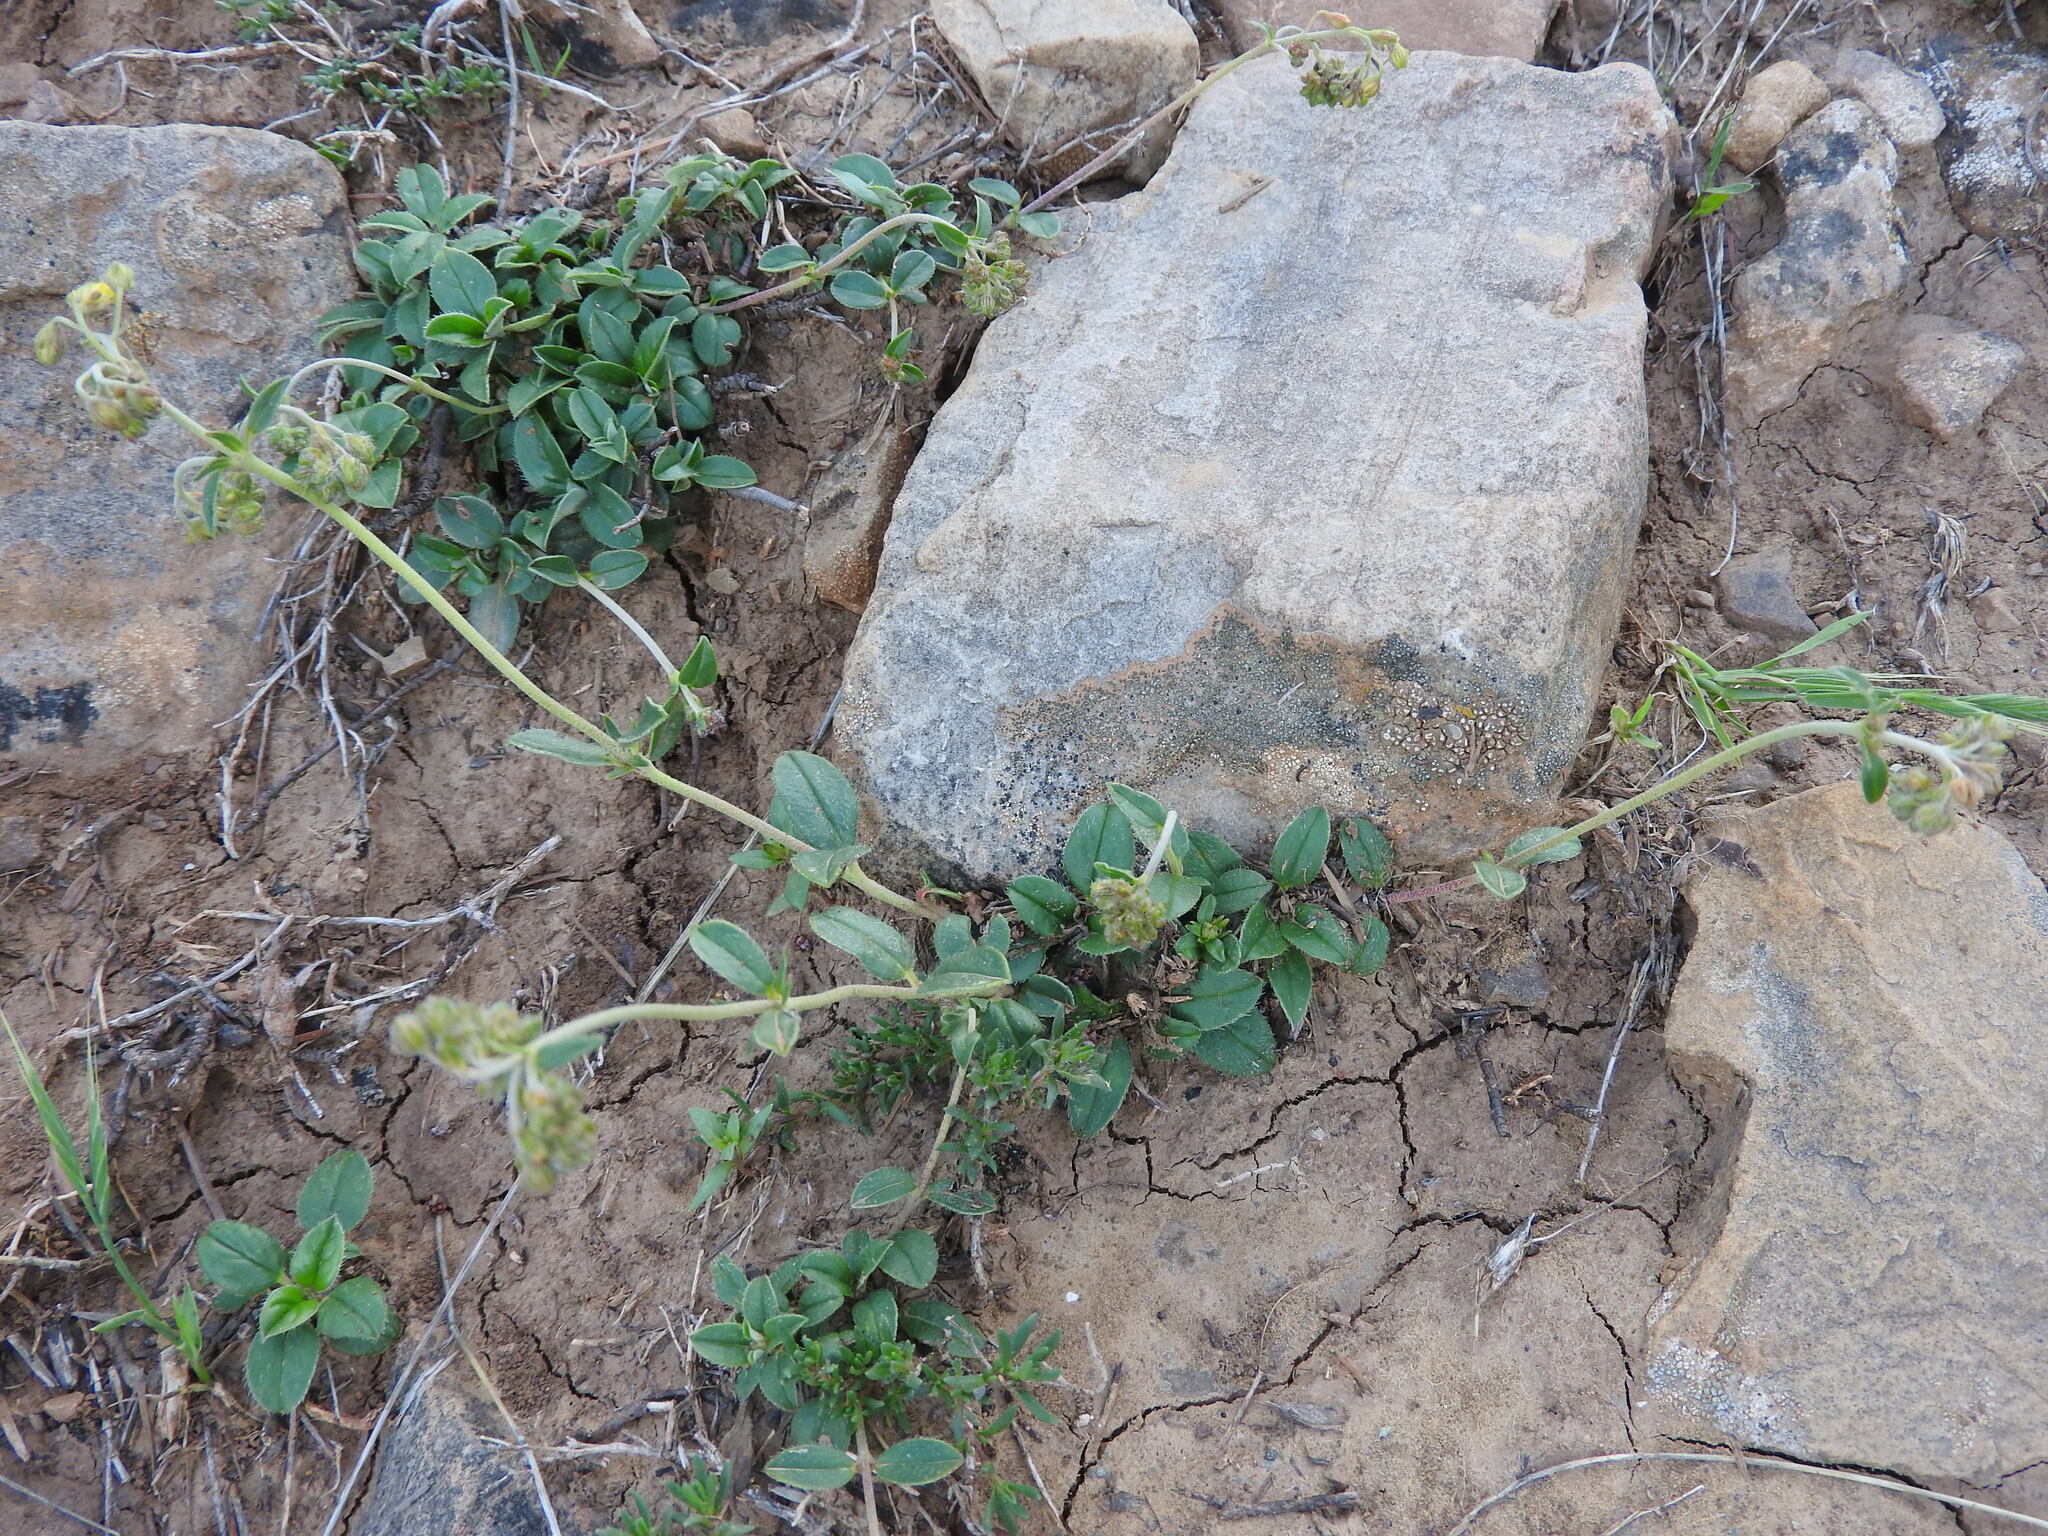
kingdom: Plantae
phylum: Tracheophyta
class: Magnoliopsida
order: Malvales
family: Cistaceae
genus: Helianthemum
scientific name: Helianthemum cinereum
